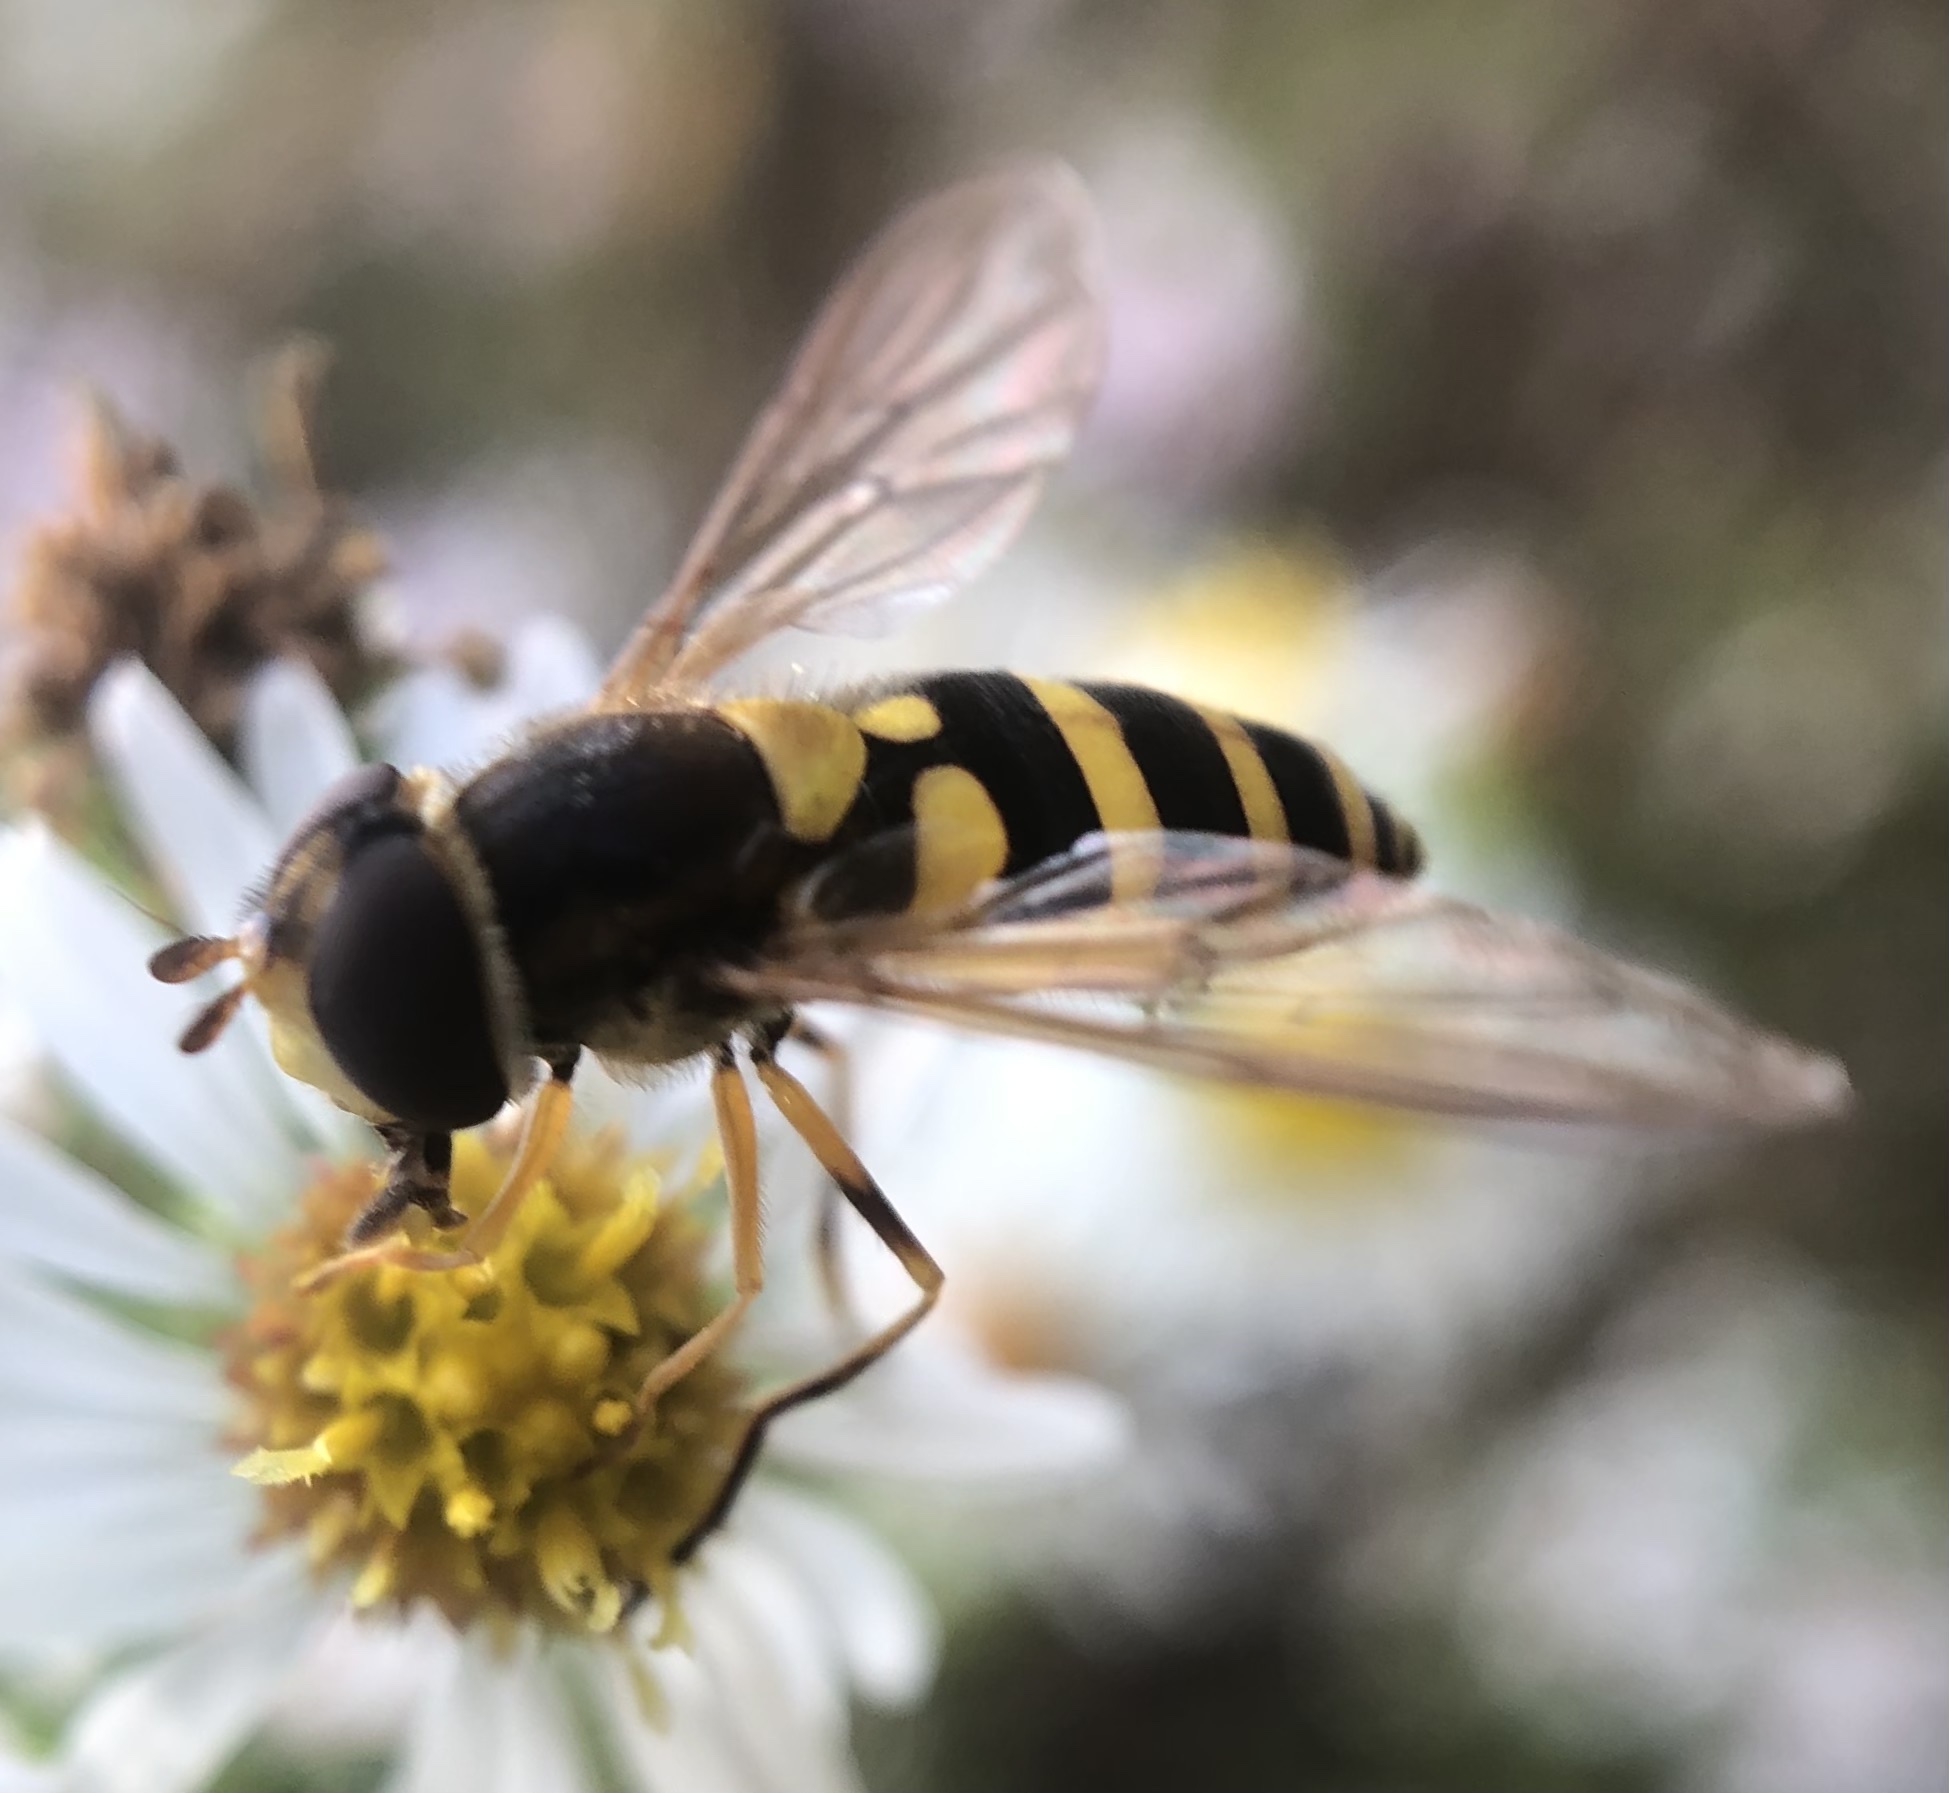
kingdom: Animalia
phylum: Arthropoda
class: Insecta
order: Diptera
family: Syrphidae
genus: Syrphus
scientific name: Syrphus rectus
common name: Yellow-legged flower fly
